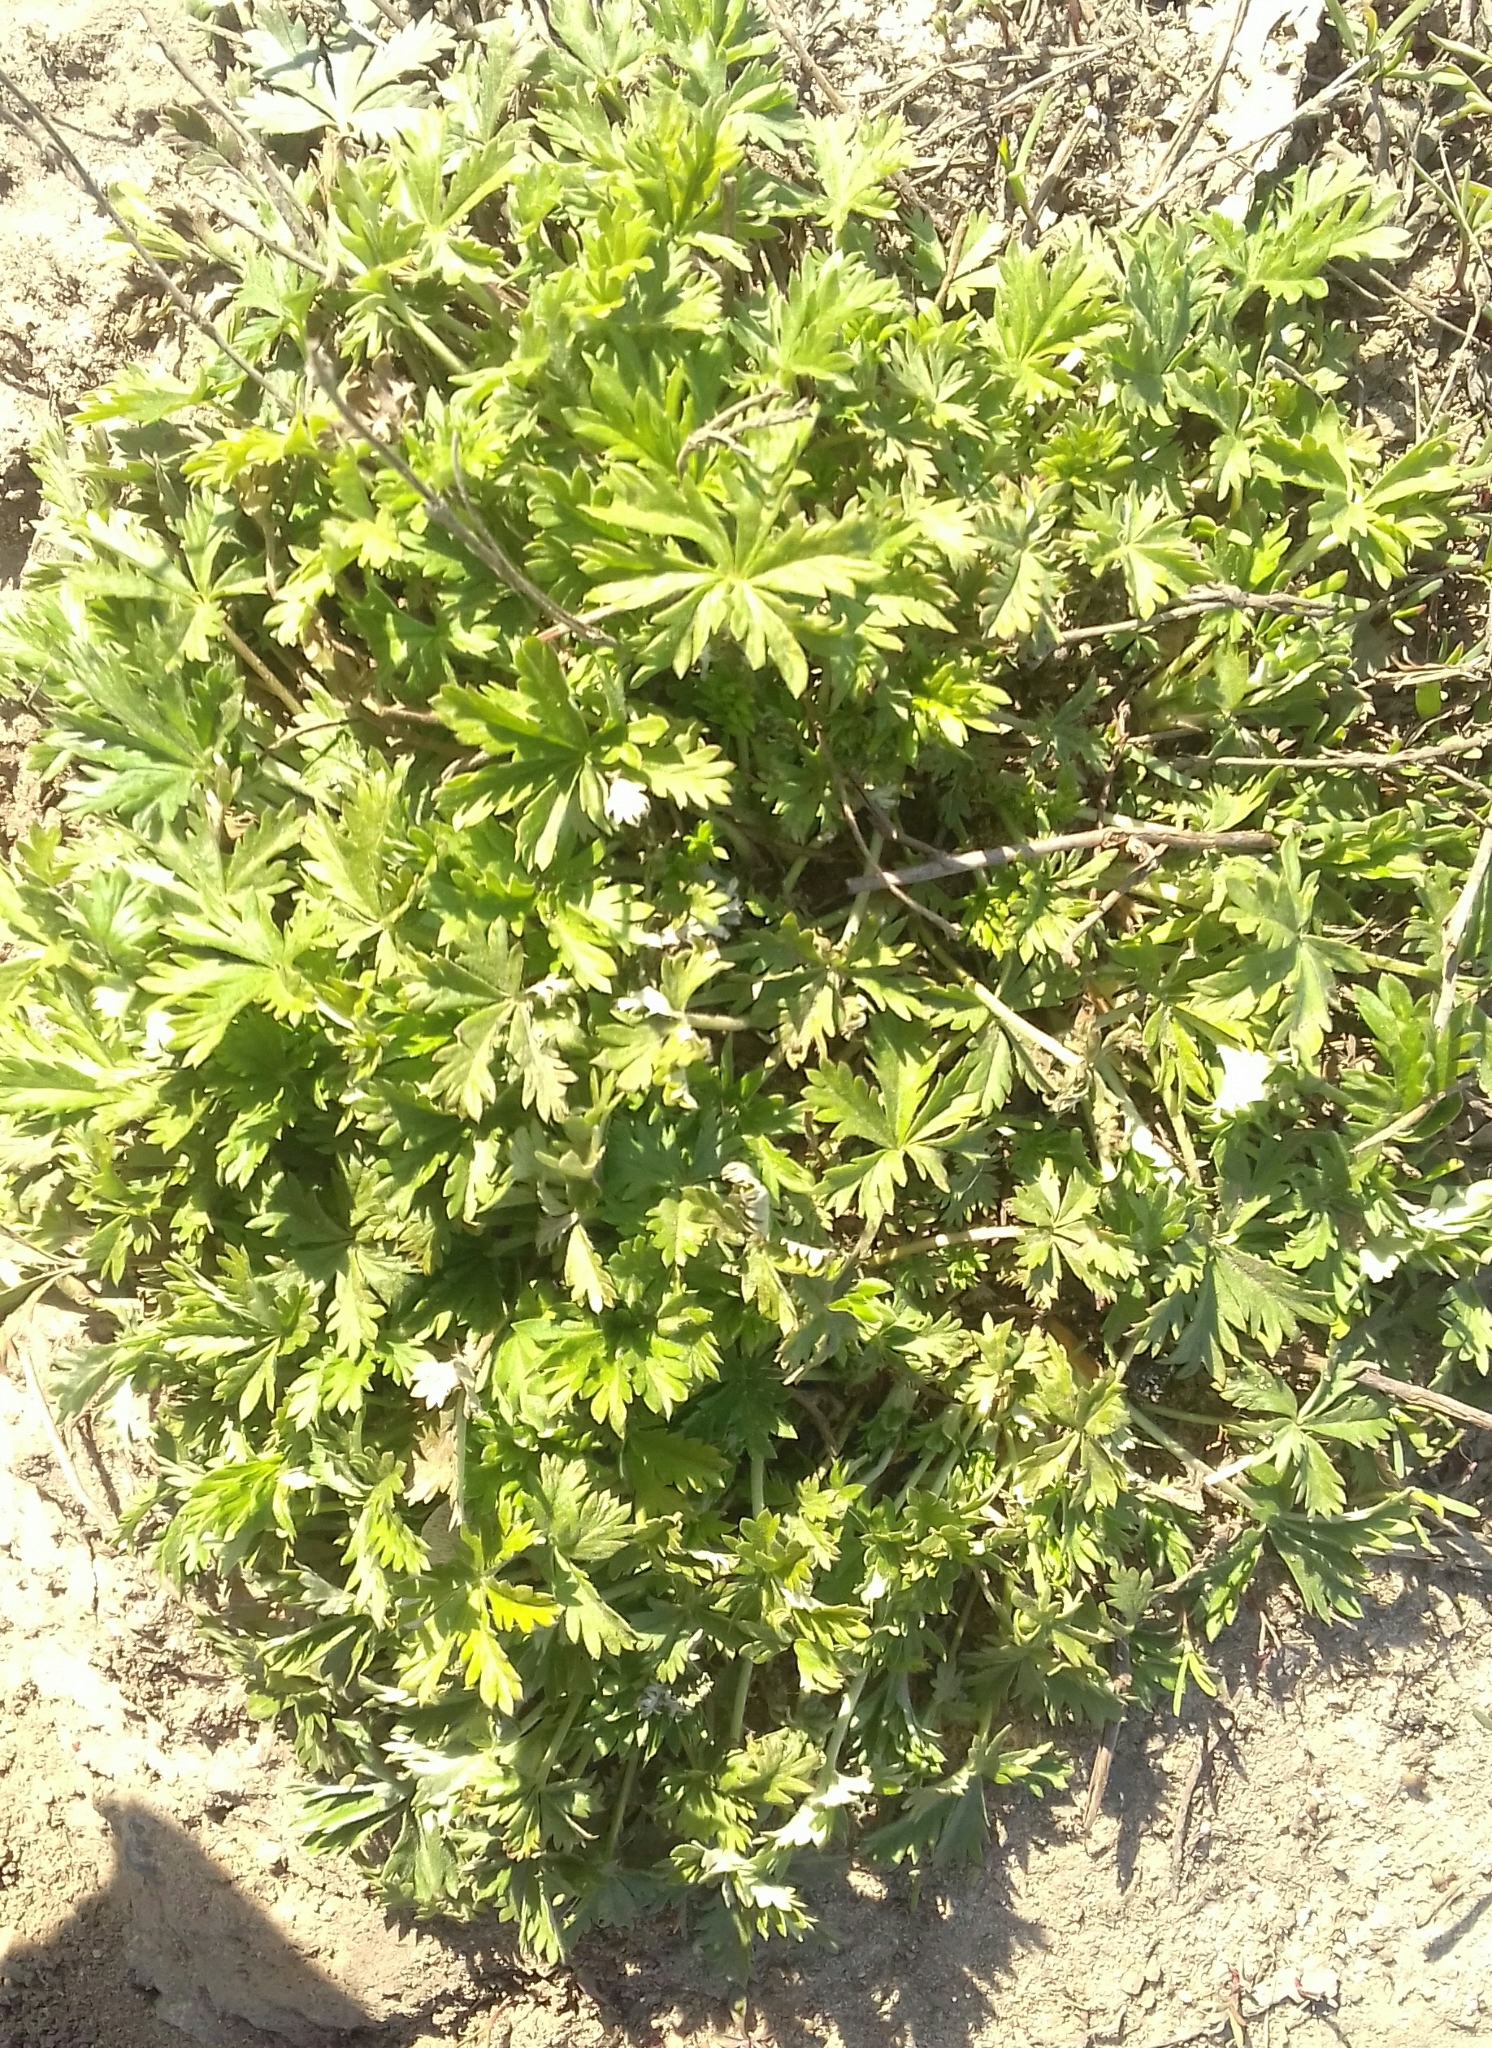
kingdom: Plantae
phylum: Tracheophyta
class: Magnoliopsida
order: Rosales
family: Rosaceae
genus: Potentilla
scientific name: Potentilla argentea
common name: Hoary cinquefoil
